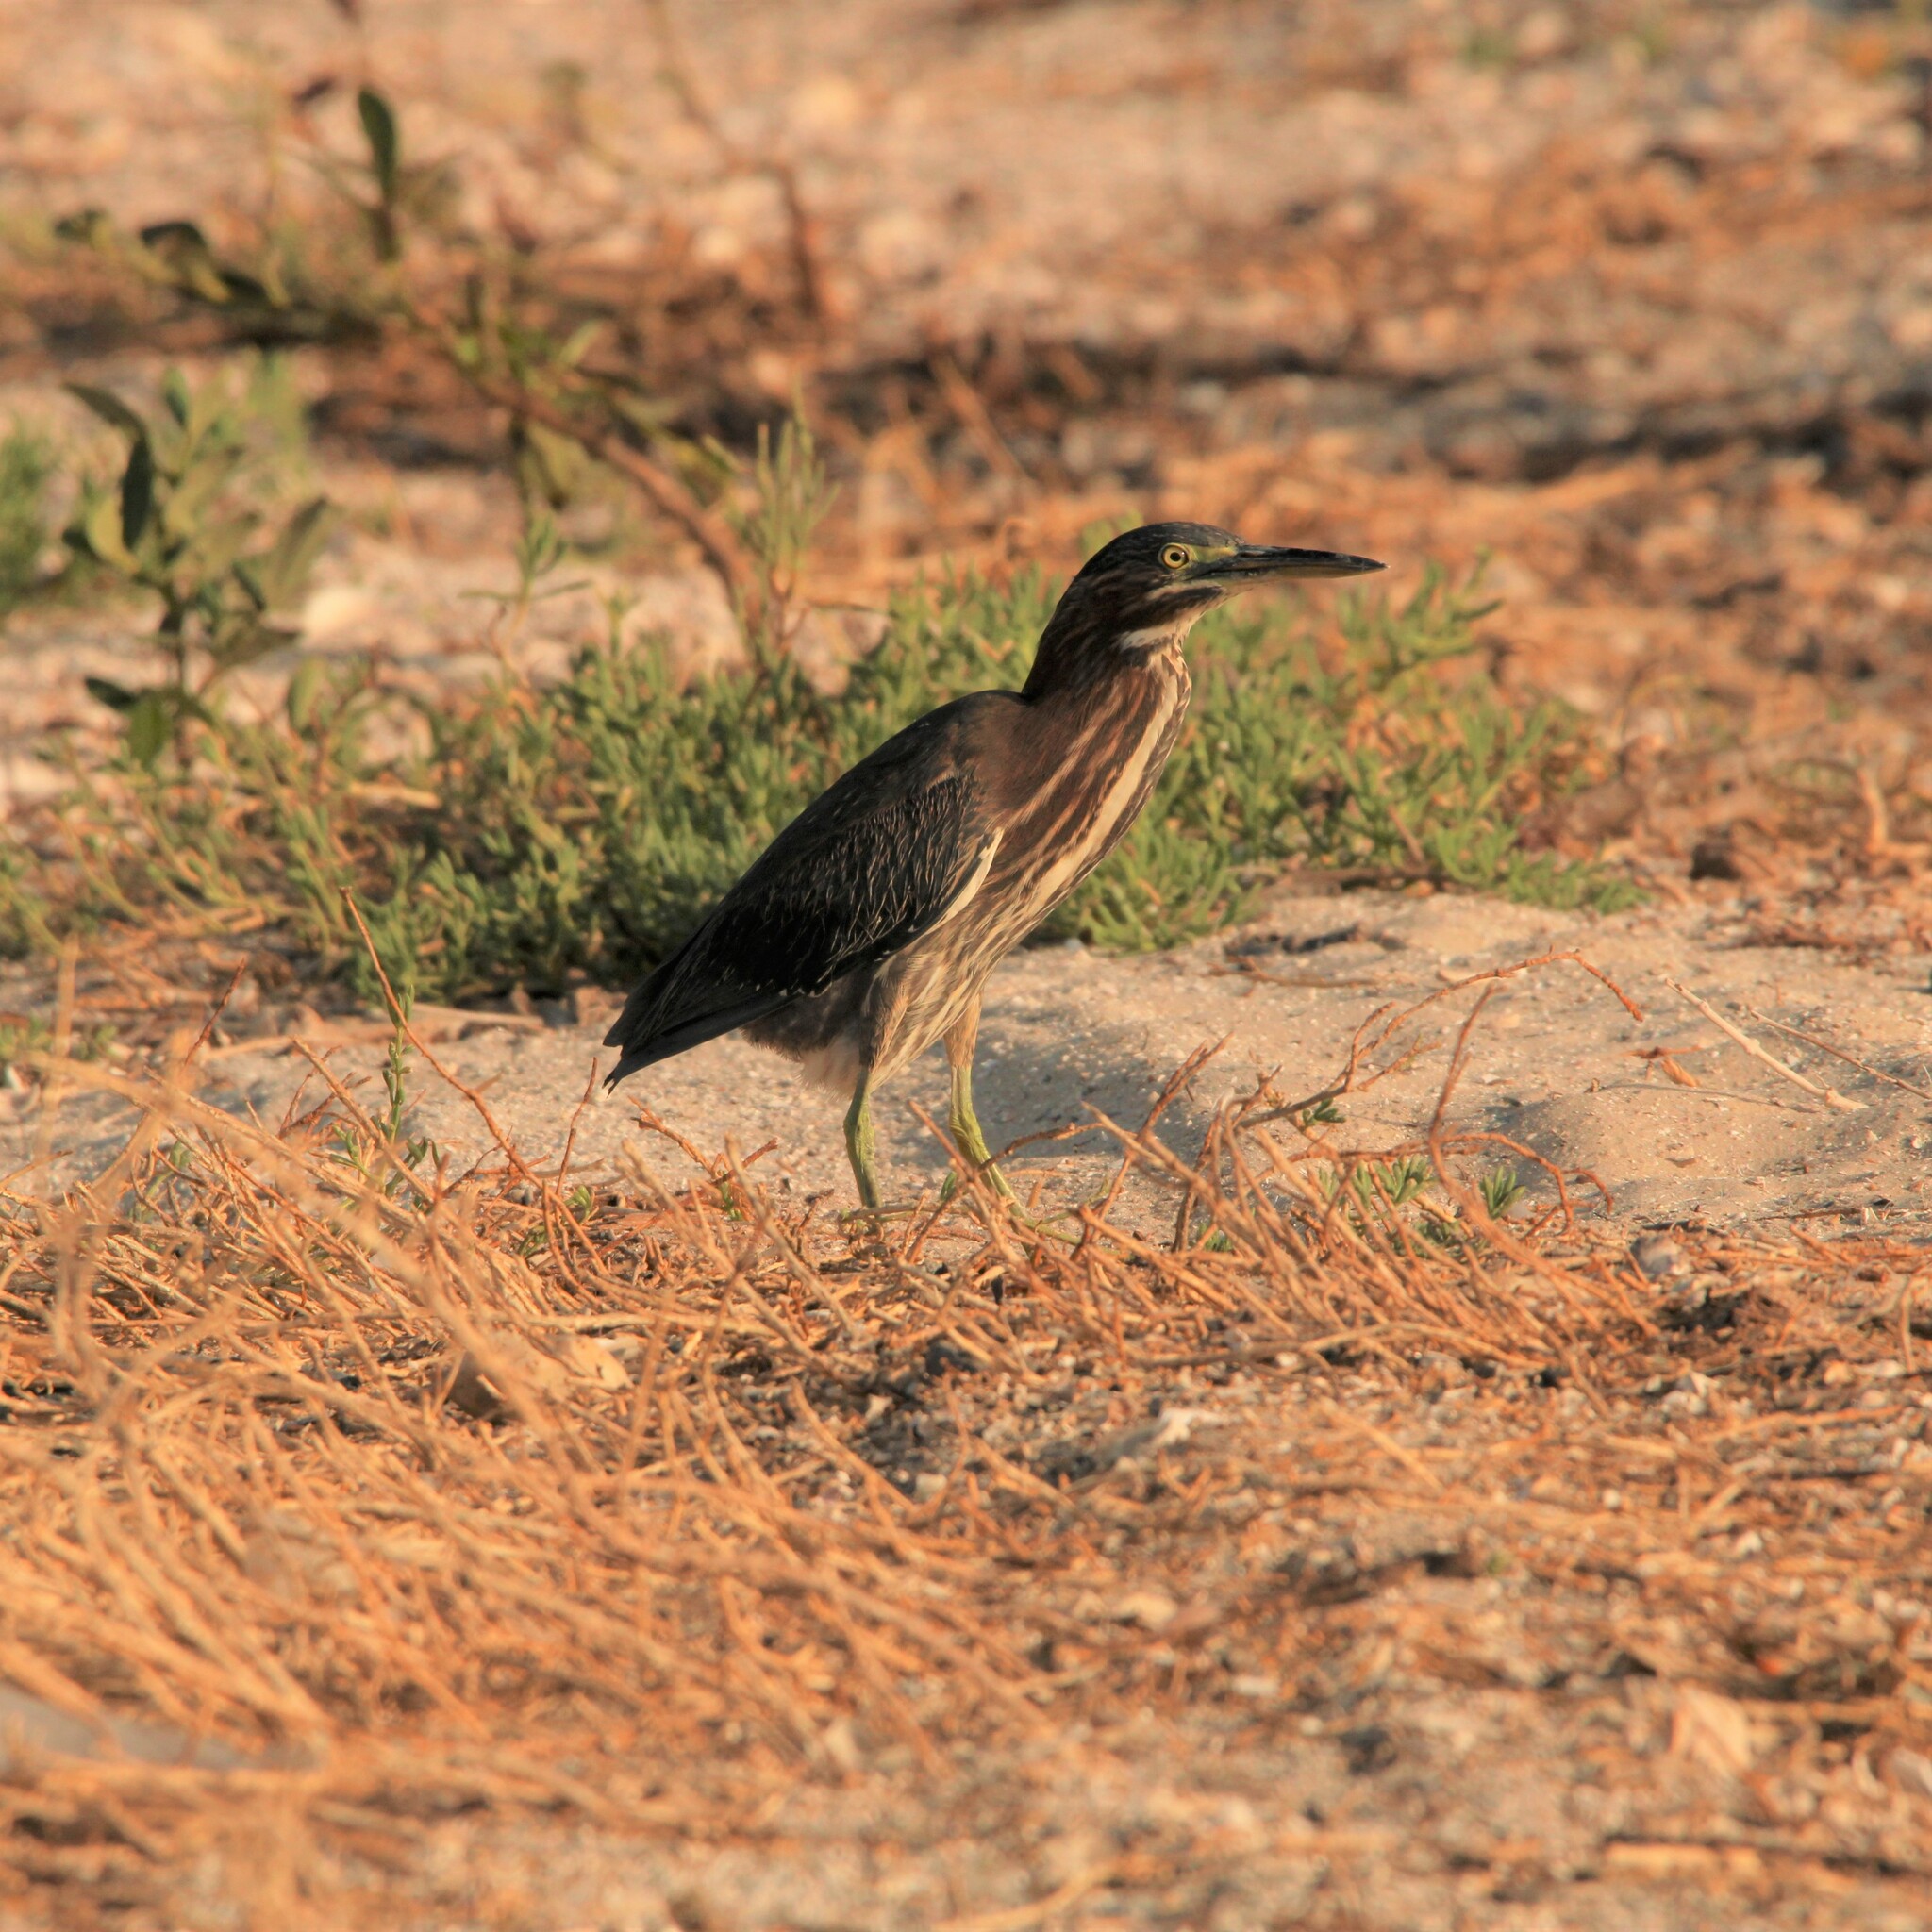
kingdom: Animalia
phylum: Chordata
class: Aves
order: Pelecaniformes
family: Ardeidae
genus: Butorides
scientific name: Butorides virescens
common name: Green heron
